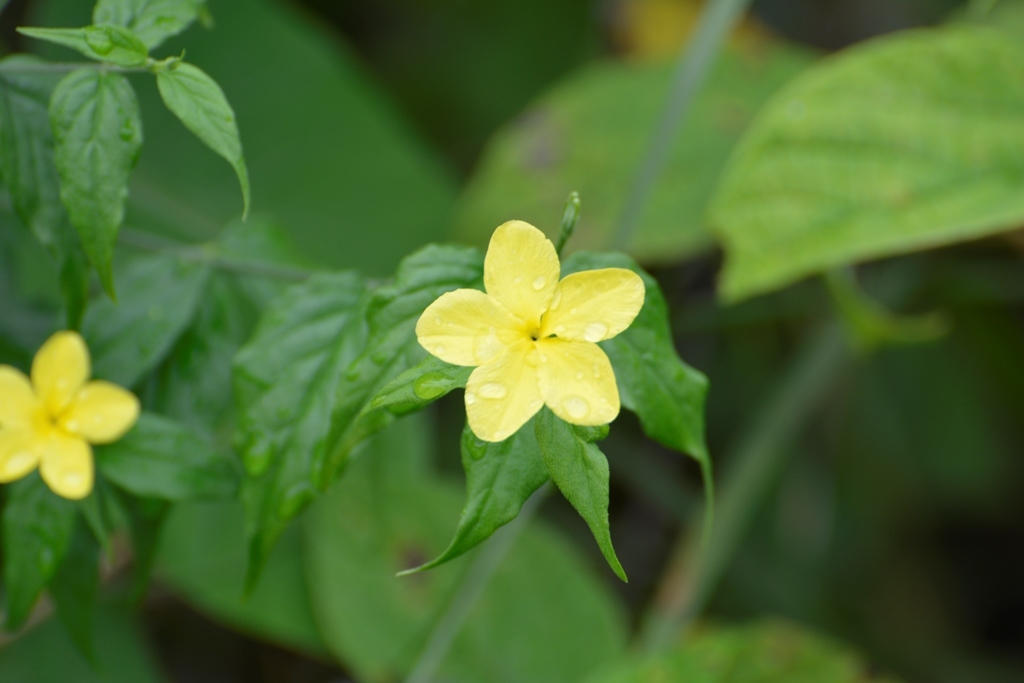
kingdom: Plantae
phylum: Tracheophyta
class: Magnoliopsida
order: Gentianales
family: Apocynaceae
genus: Haplophyton
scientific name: Haplophyton cimicidum
